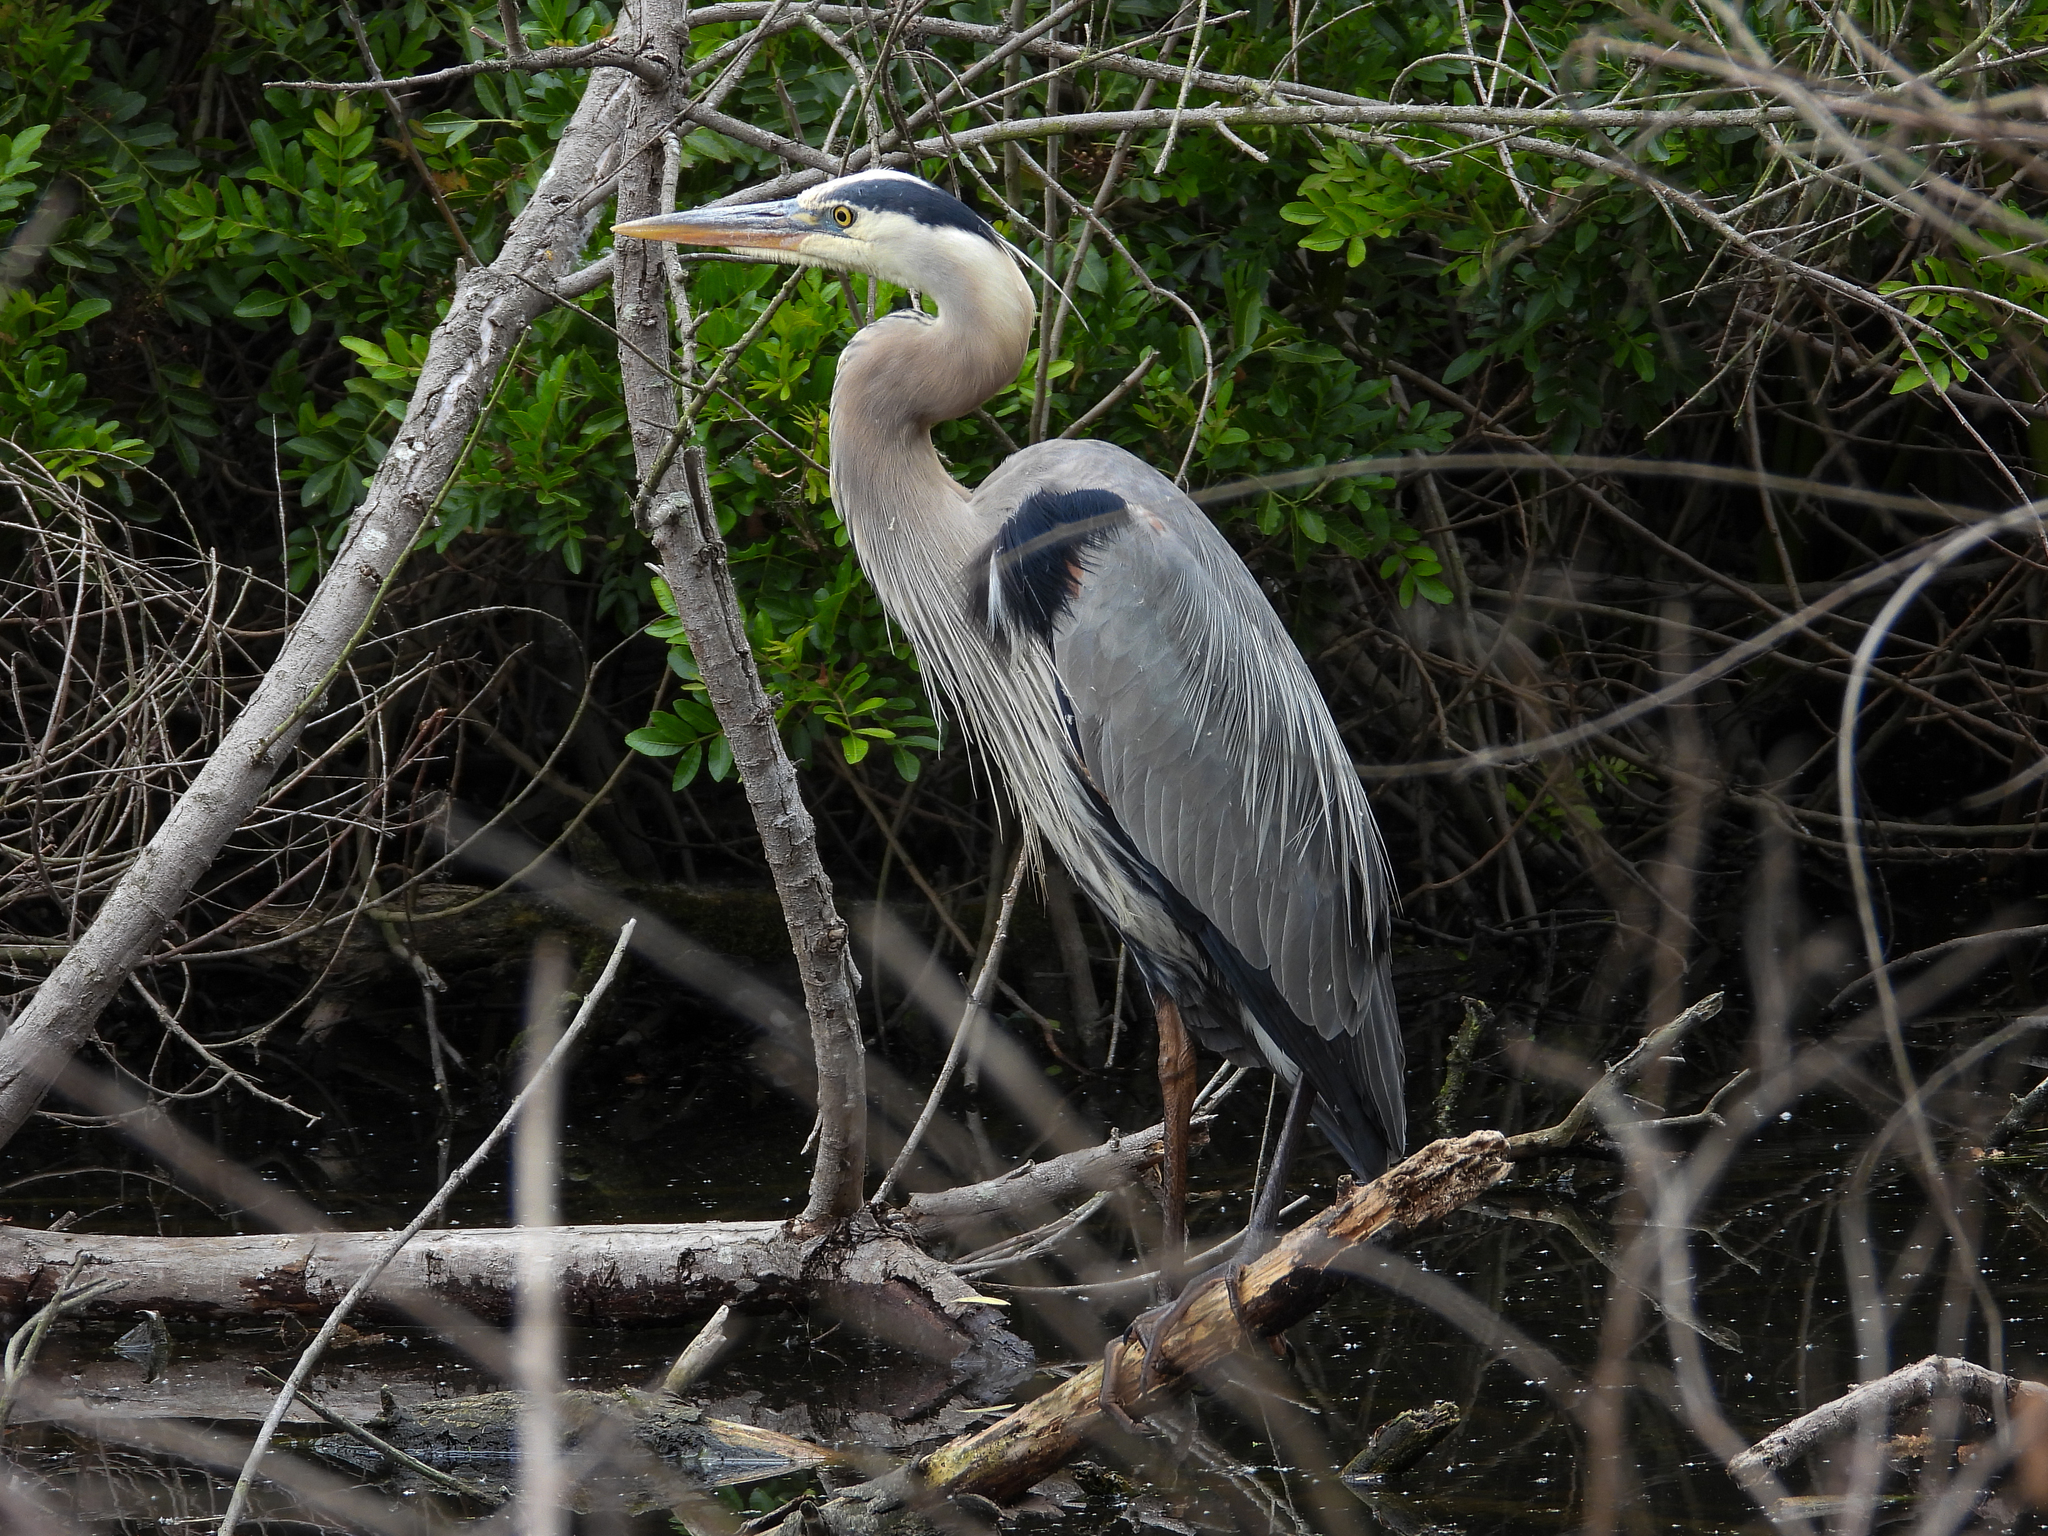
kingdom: Animalia
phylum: Chordata
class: Aves
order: Pelecaniformes
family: Ardeidae
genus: Ardea
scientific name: Ardea herodias
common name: Great blue heron
